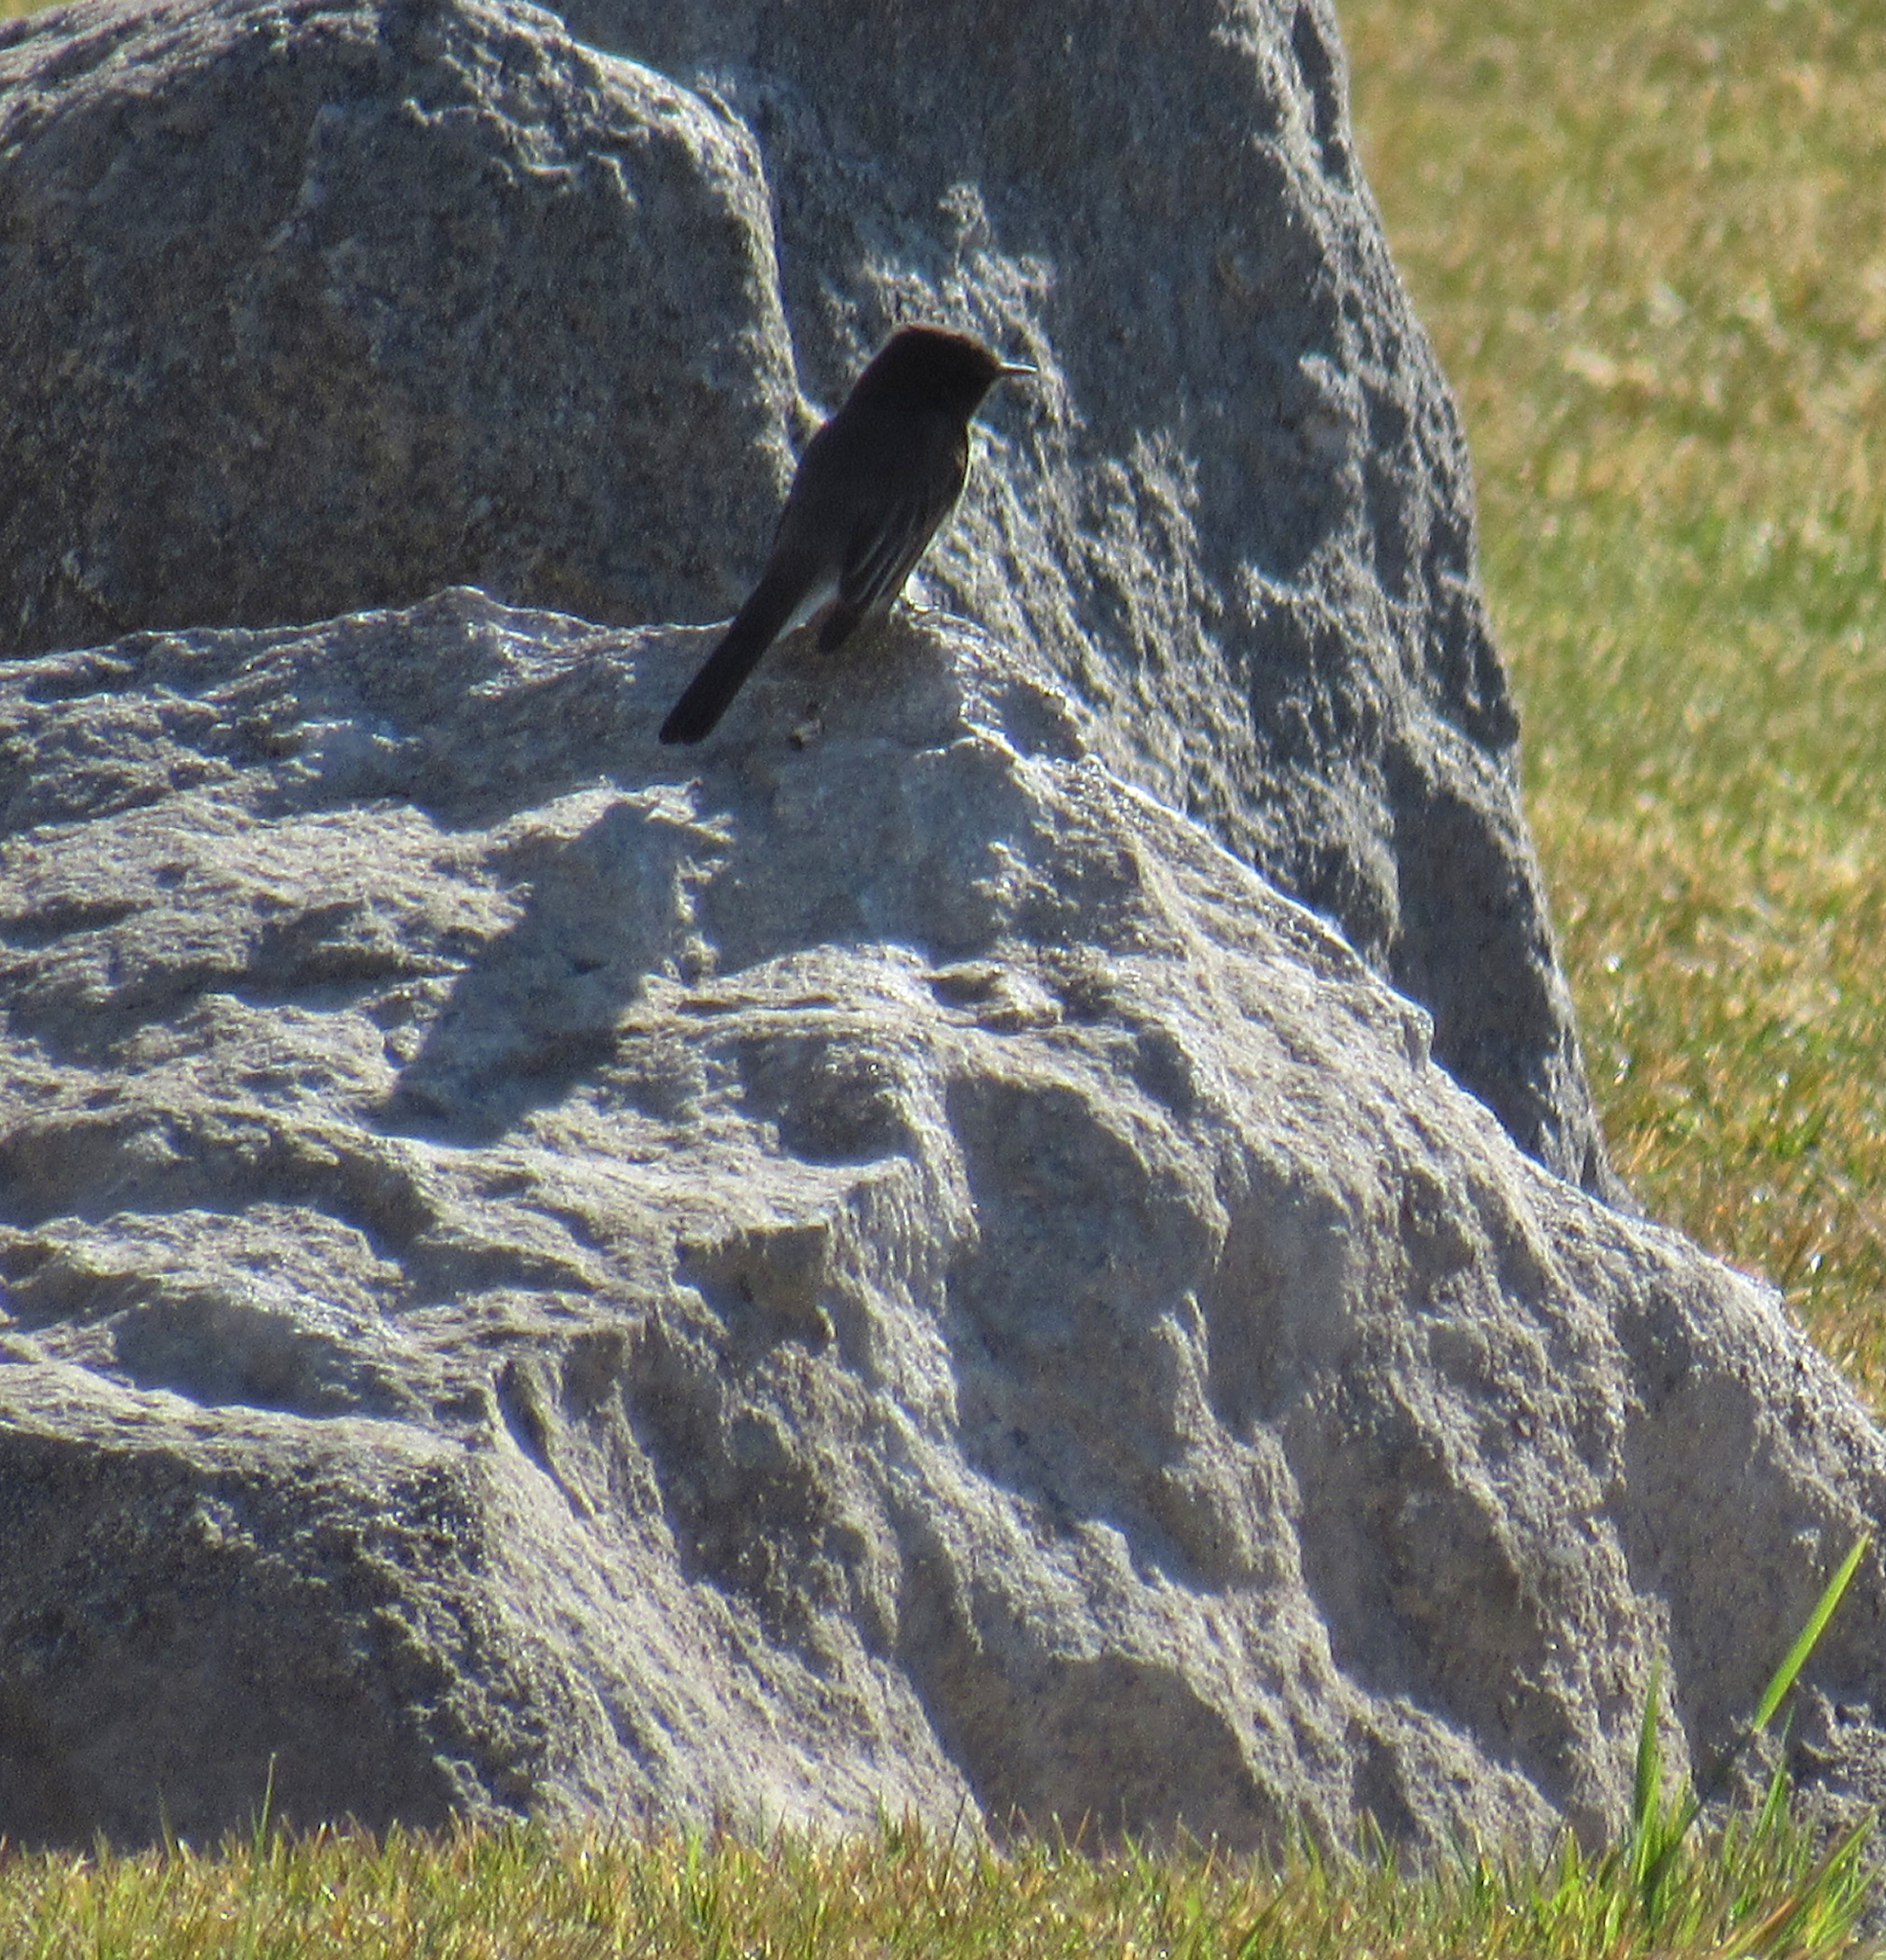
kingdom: Animalia
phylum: Chordata
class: Aves
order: Passeriformes
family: Tyrannidae
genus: Sayornis
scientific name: Sayornis nigricans
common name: Black phoebe
